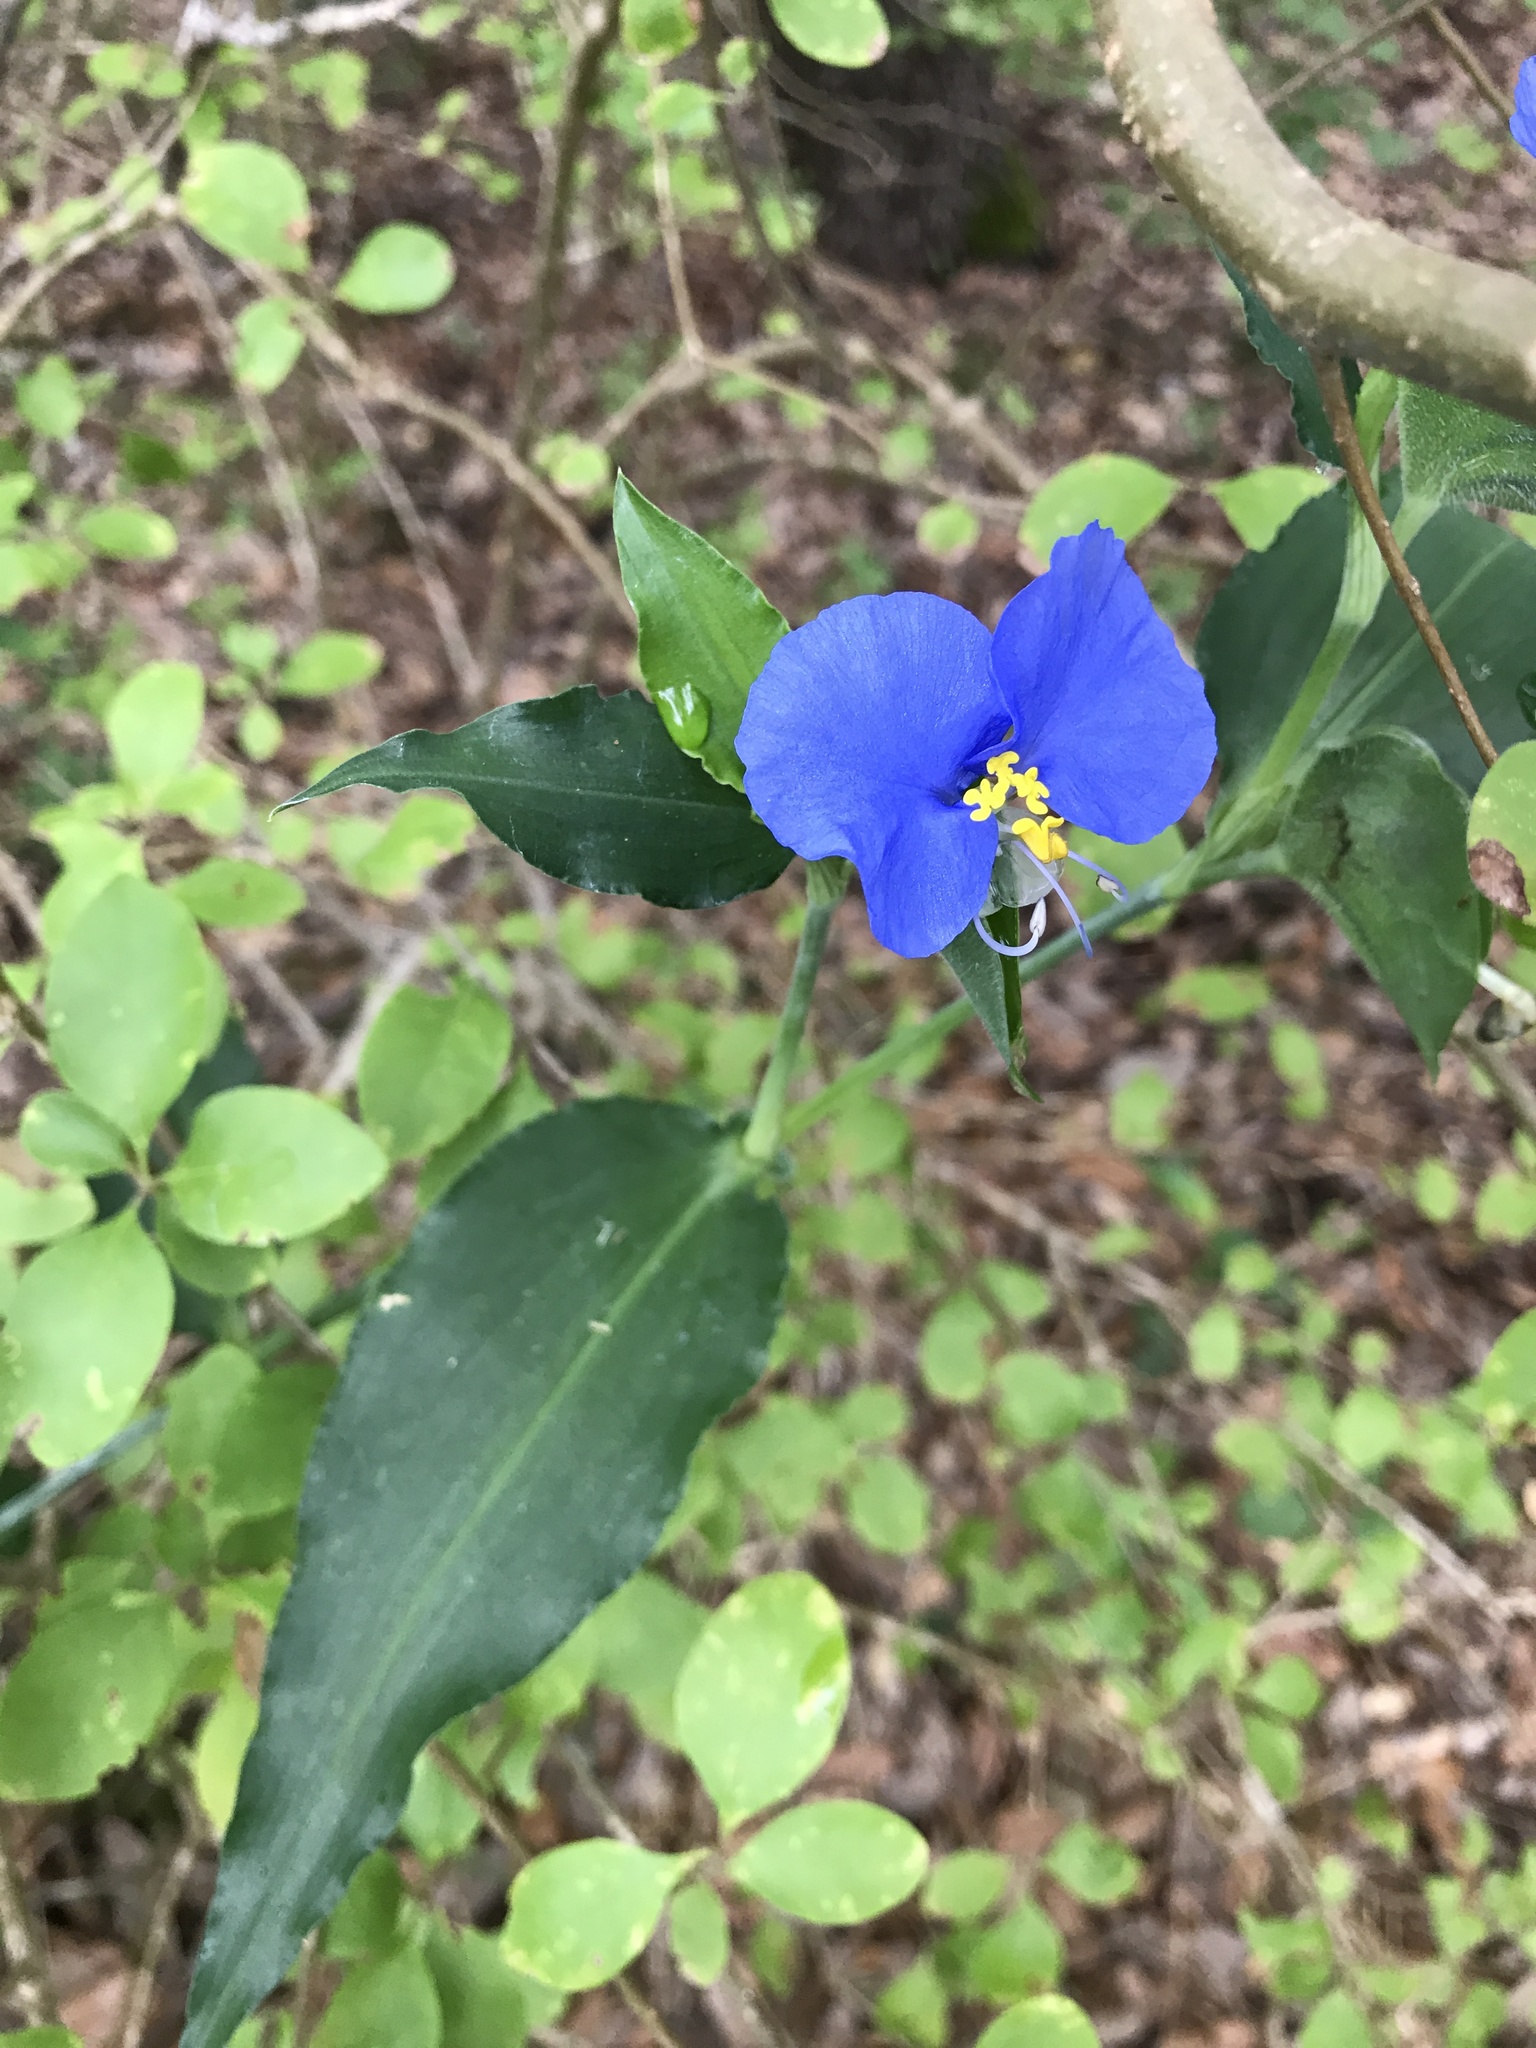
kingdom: Plantae
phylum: Tracheophyta
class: Liliopsida
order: Commelinales
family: Commelinaceae
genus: Commelina
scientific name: Commelina erecta
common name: Blousel blommetjie
